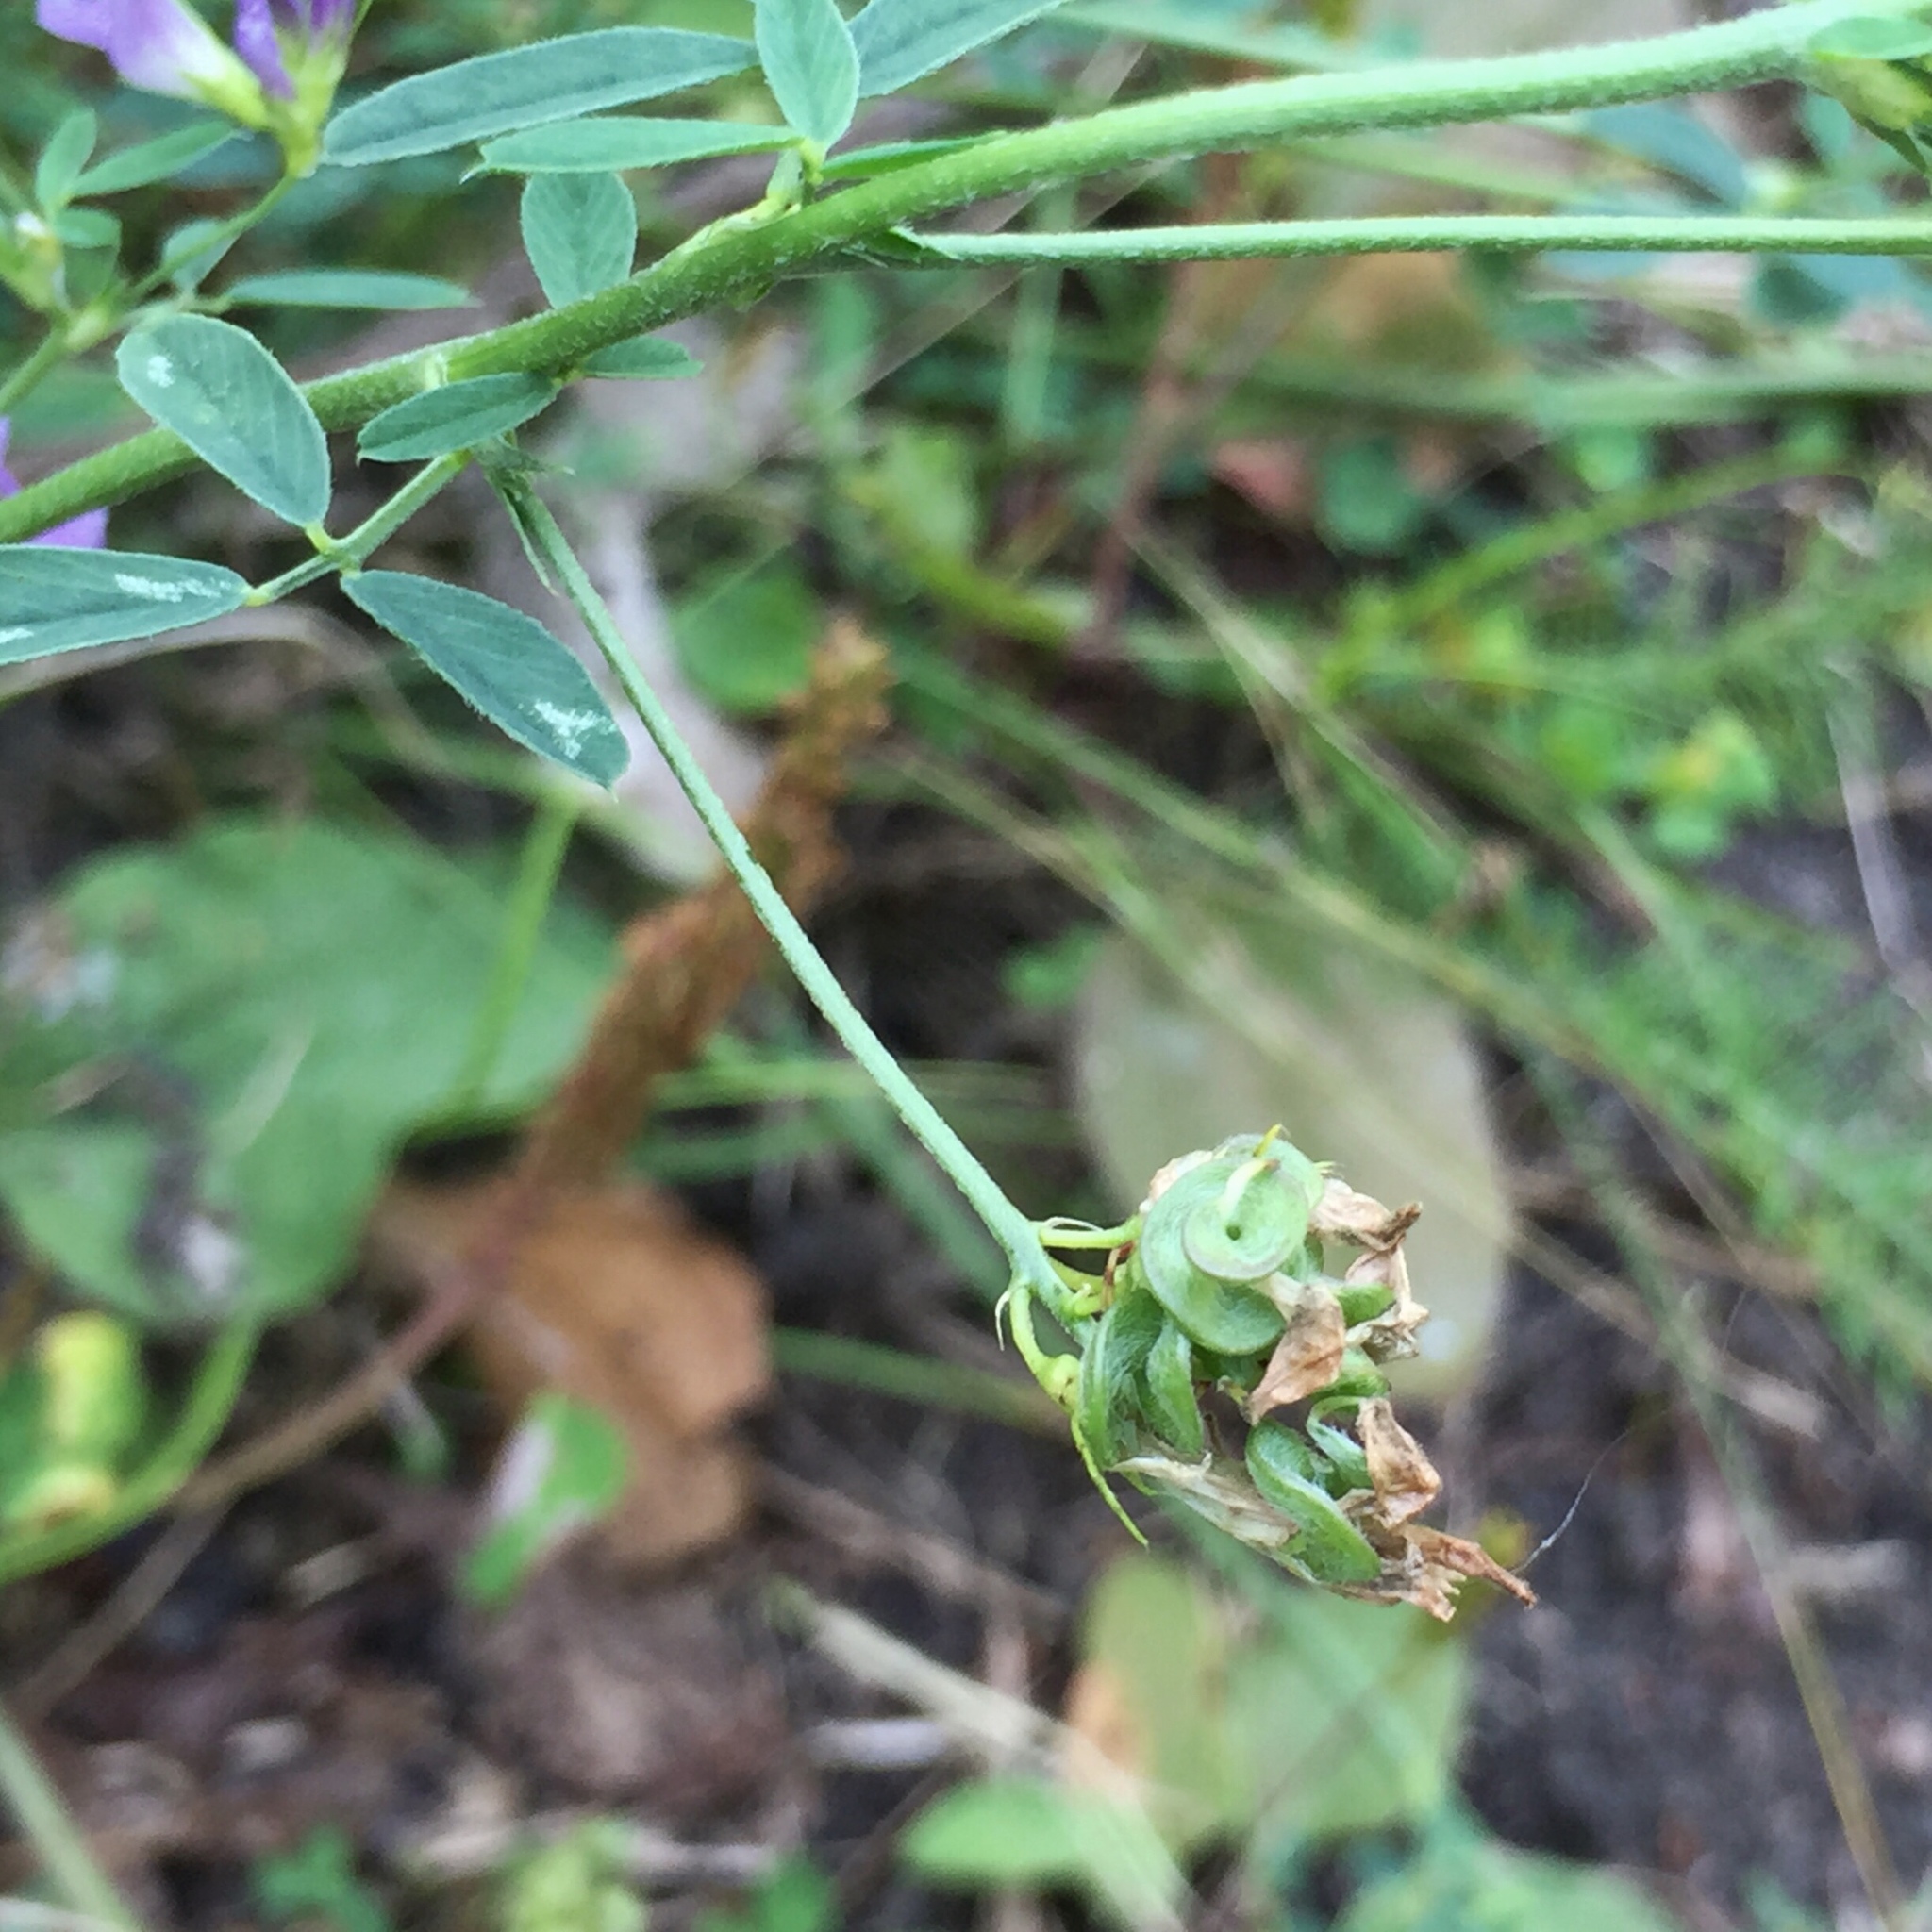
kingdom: Plantae
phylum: Tracheophyta
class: Magnoliopsida
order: Fabales
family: Fabaceae
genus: Medicago
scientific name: Medicago sativa
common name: Alfalfa
